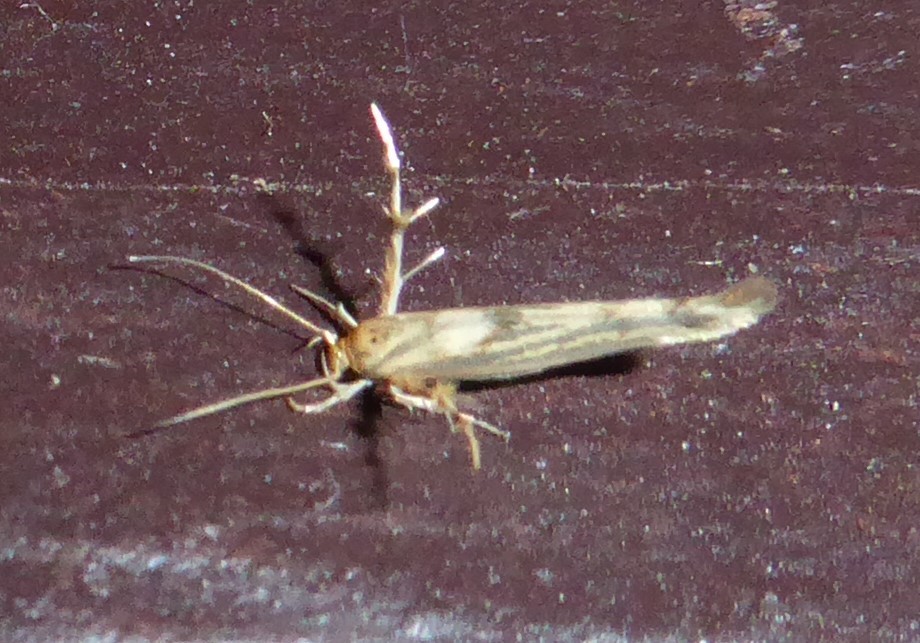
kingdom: Animalia
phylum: Arthropoda
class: Insecta
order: Lepidoptera
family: Stathmopodidae
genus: Stathmopoda
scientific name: Stathmopoda plumbiflua
